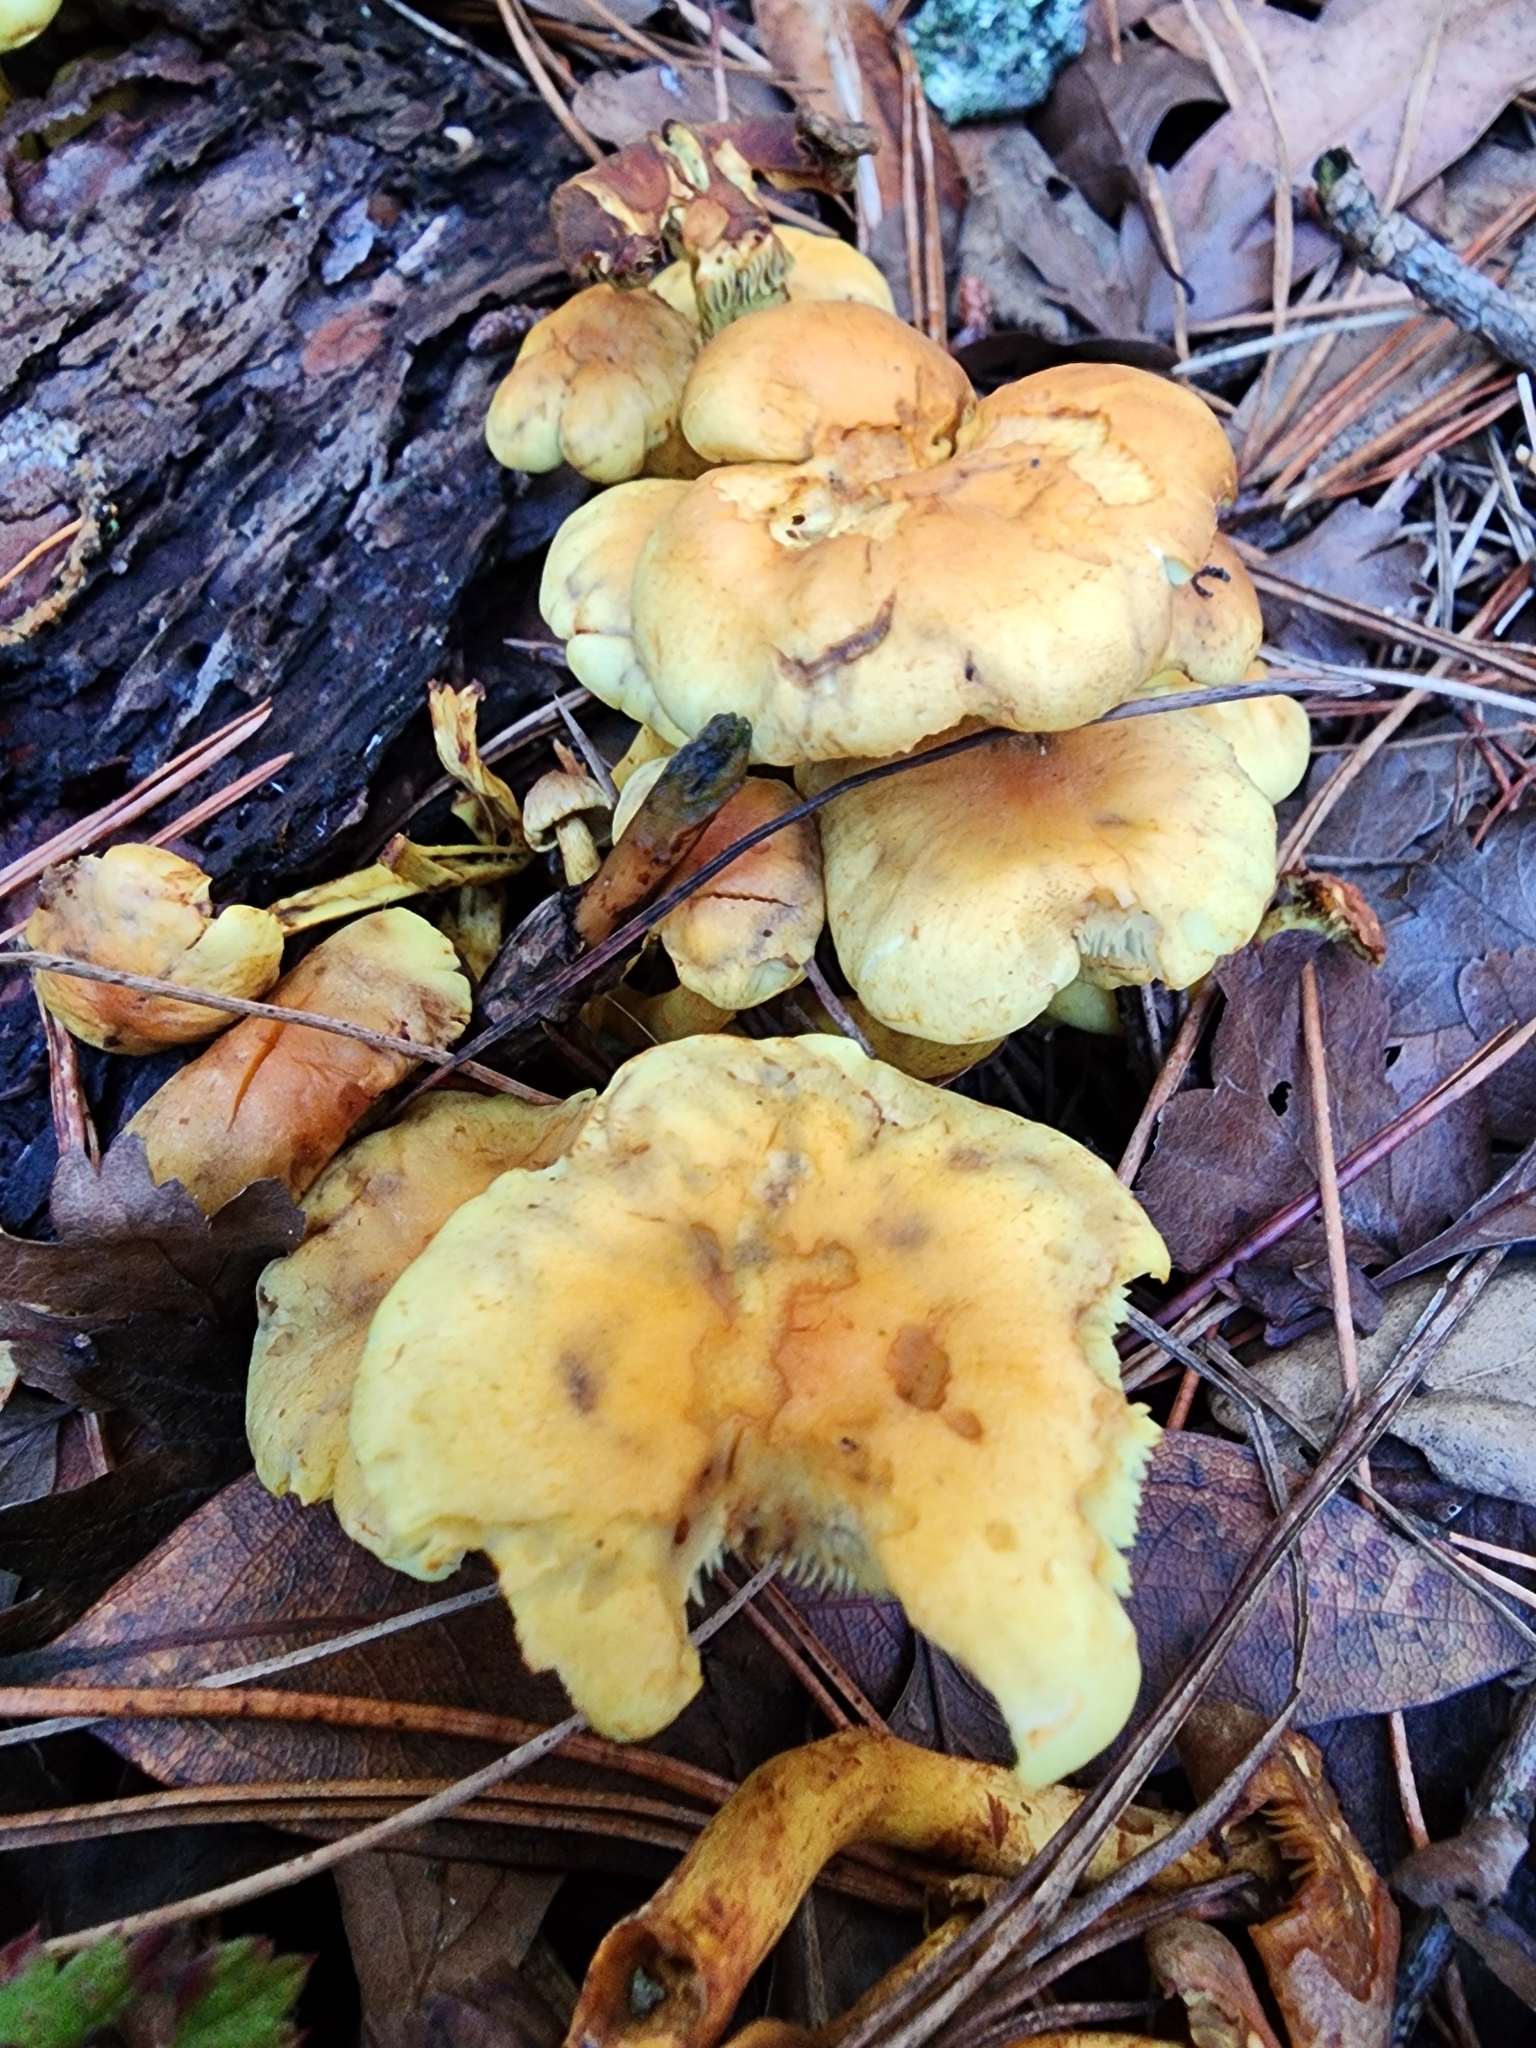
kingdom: Fungi
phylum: Basidiomycota
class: Agaricomycetes
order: Agaricales
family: Strophariaceae
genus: Hypholoma
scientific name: Hypholoma fasciculare
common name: Sulphur tuft
